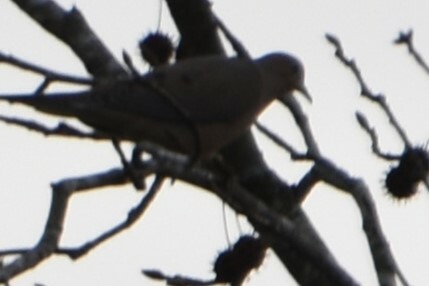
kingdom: Animalia
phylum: Chordata
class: Aves
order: Columbiformes
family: Columbidae
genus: Zenaida
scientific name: Zenaida macroura
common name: Mourning dove
